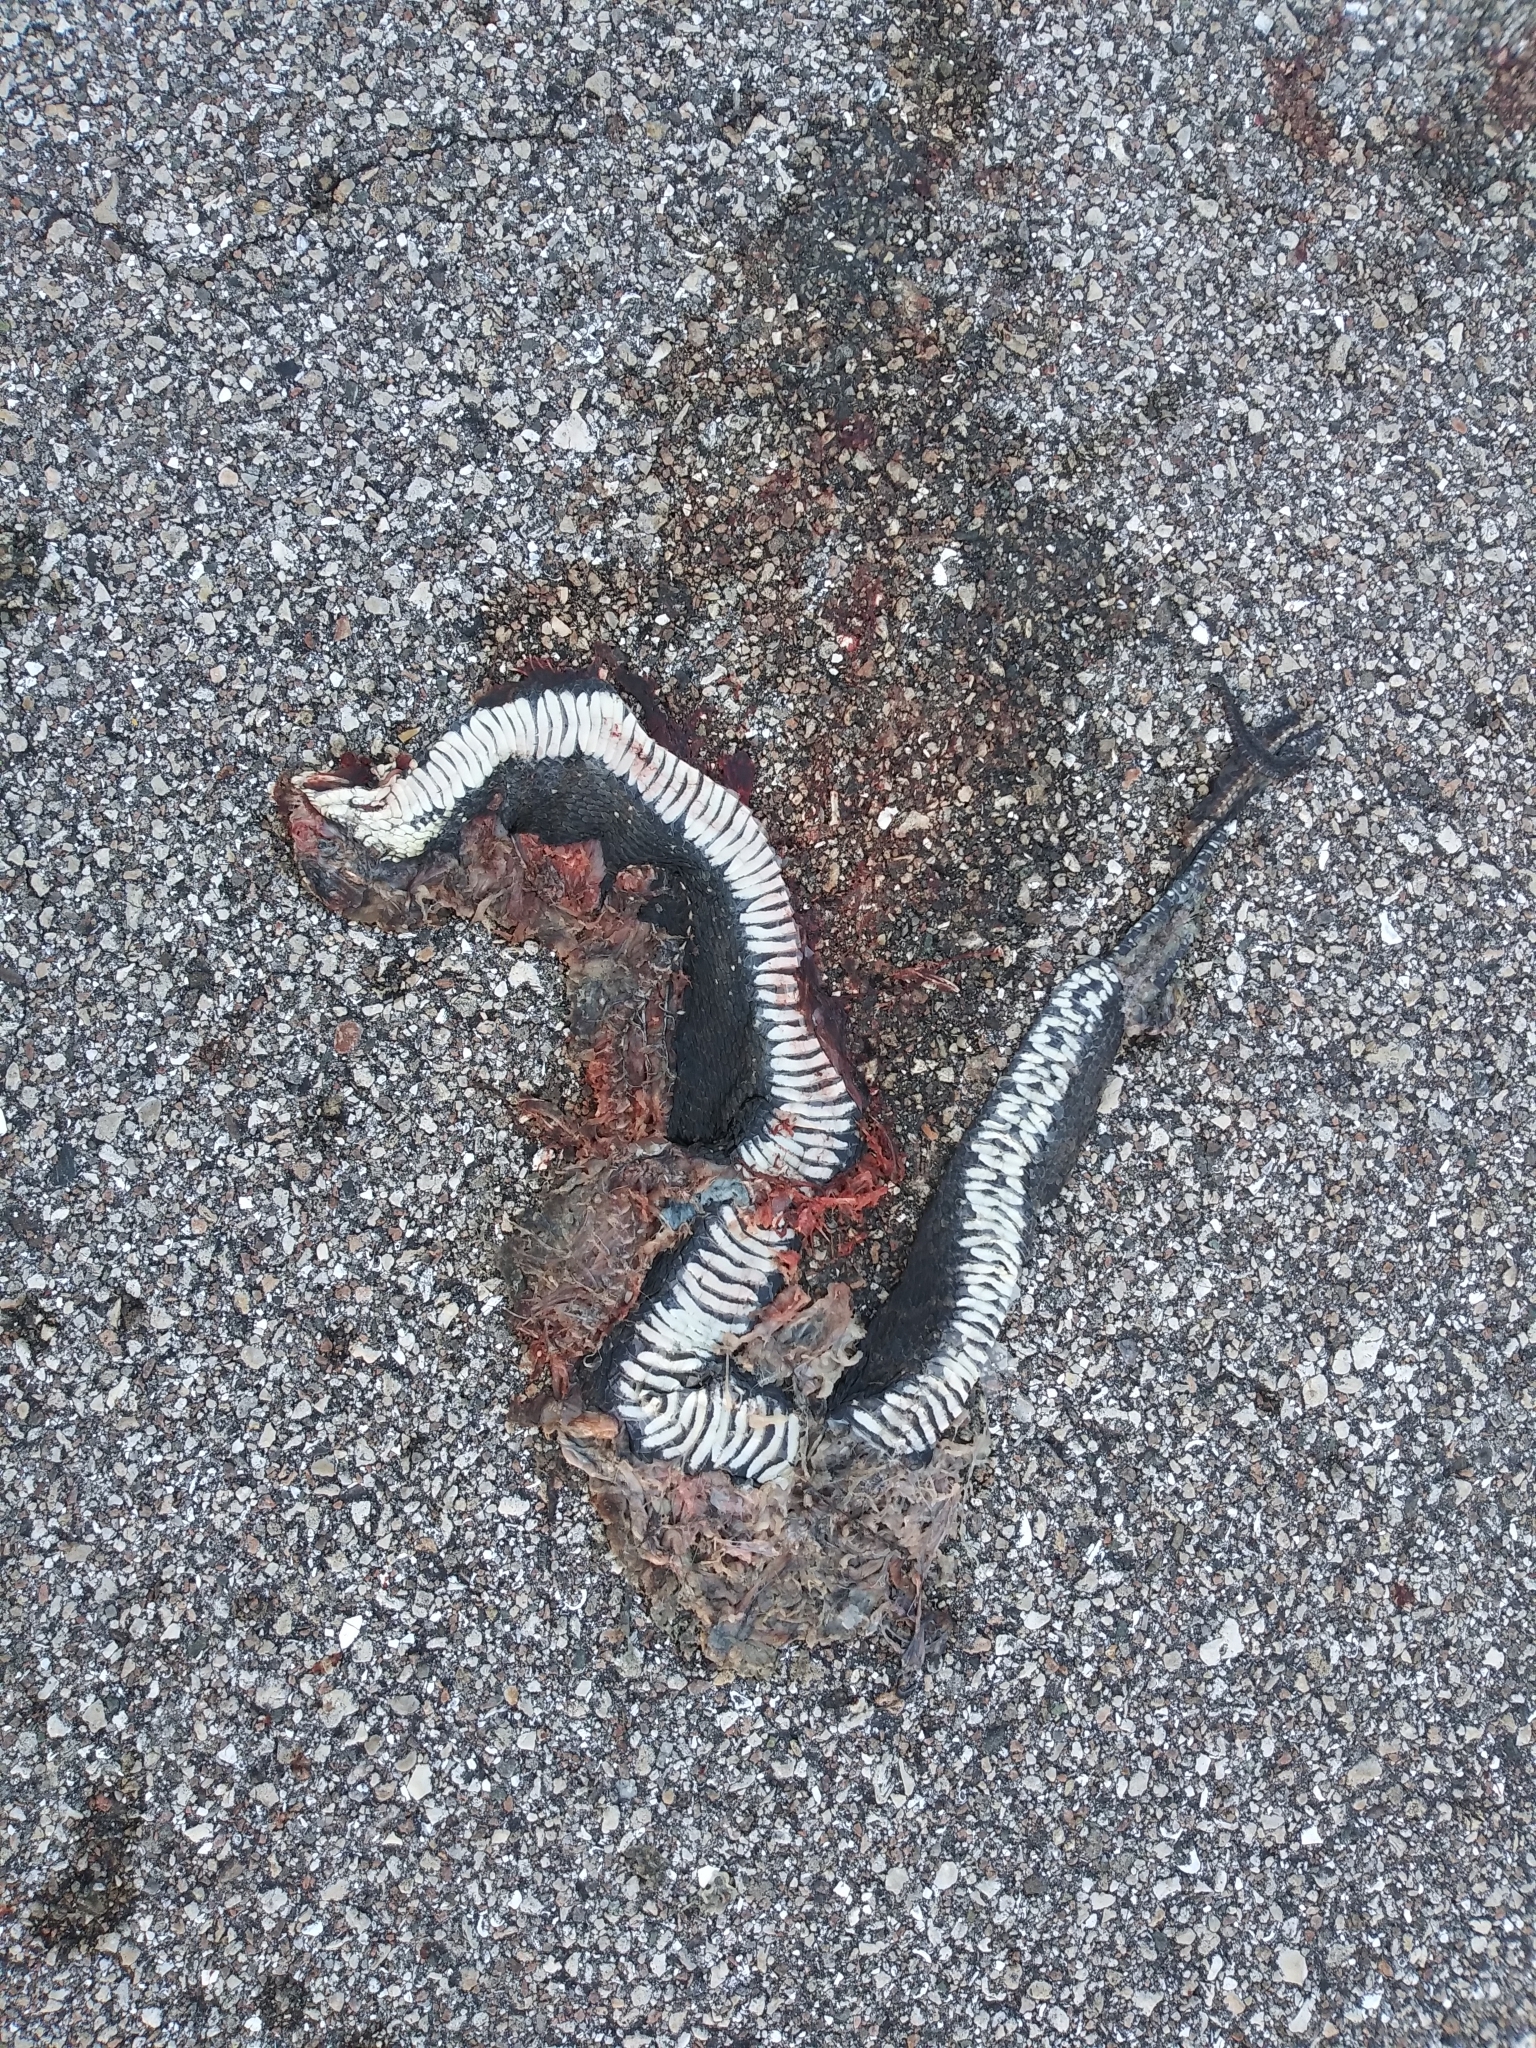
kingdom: Animalia
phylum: Chordata
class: Squamata
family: Colubridae
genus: Nerodia
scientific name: Nerodia fasciata
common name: Southern water snake
